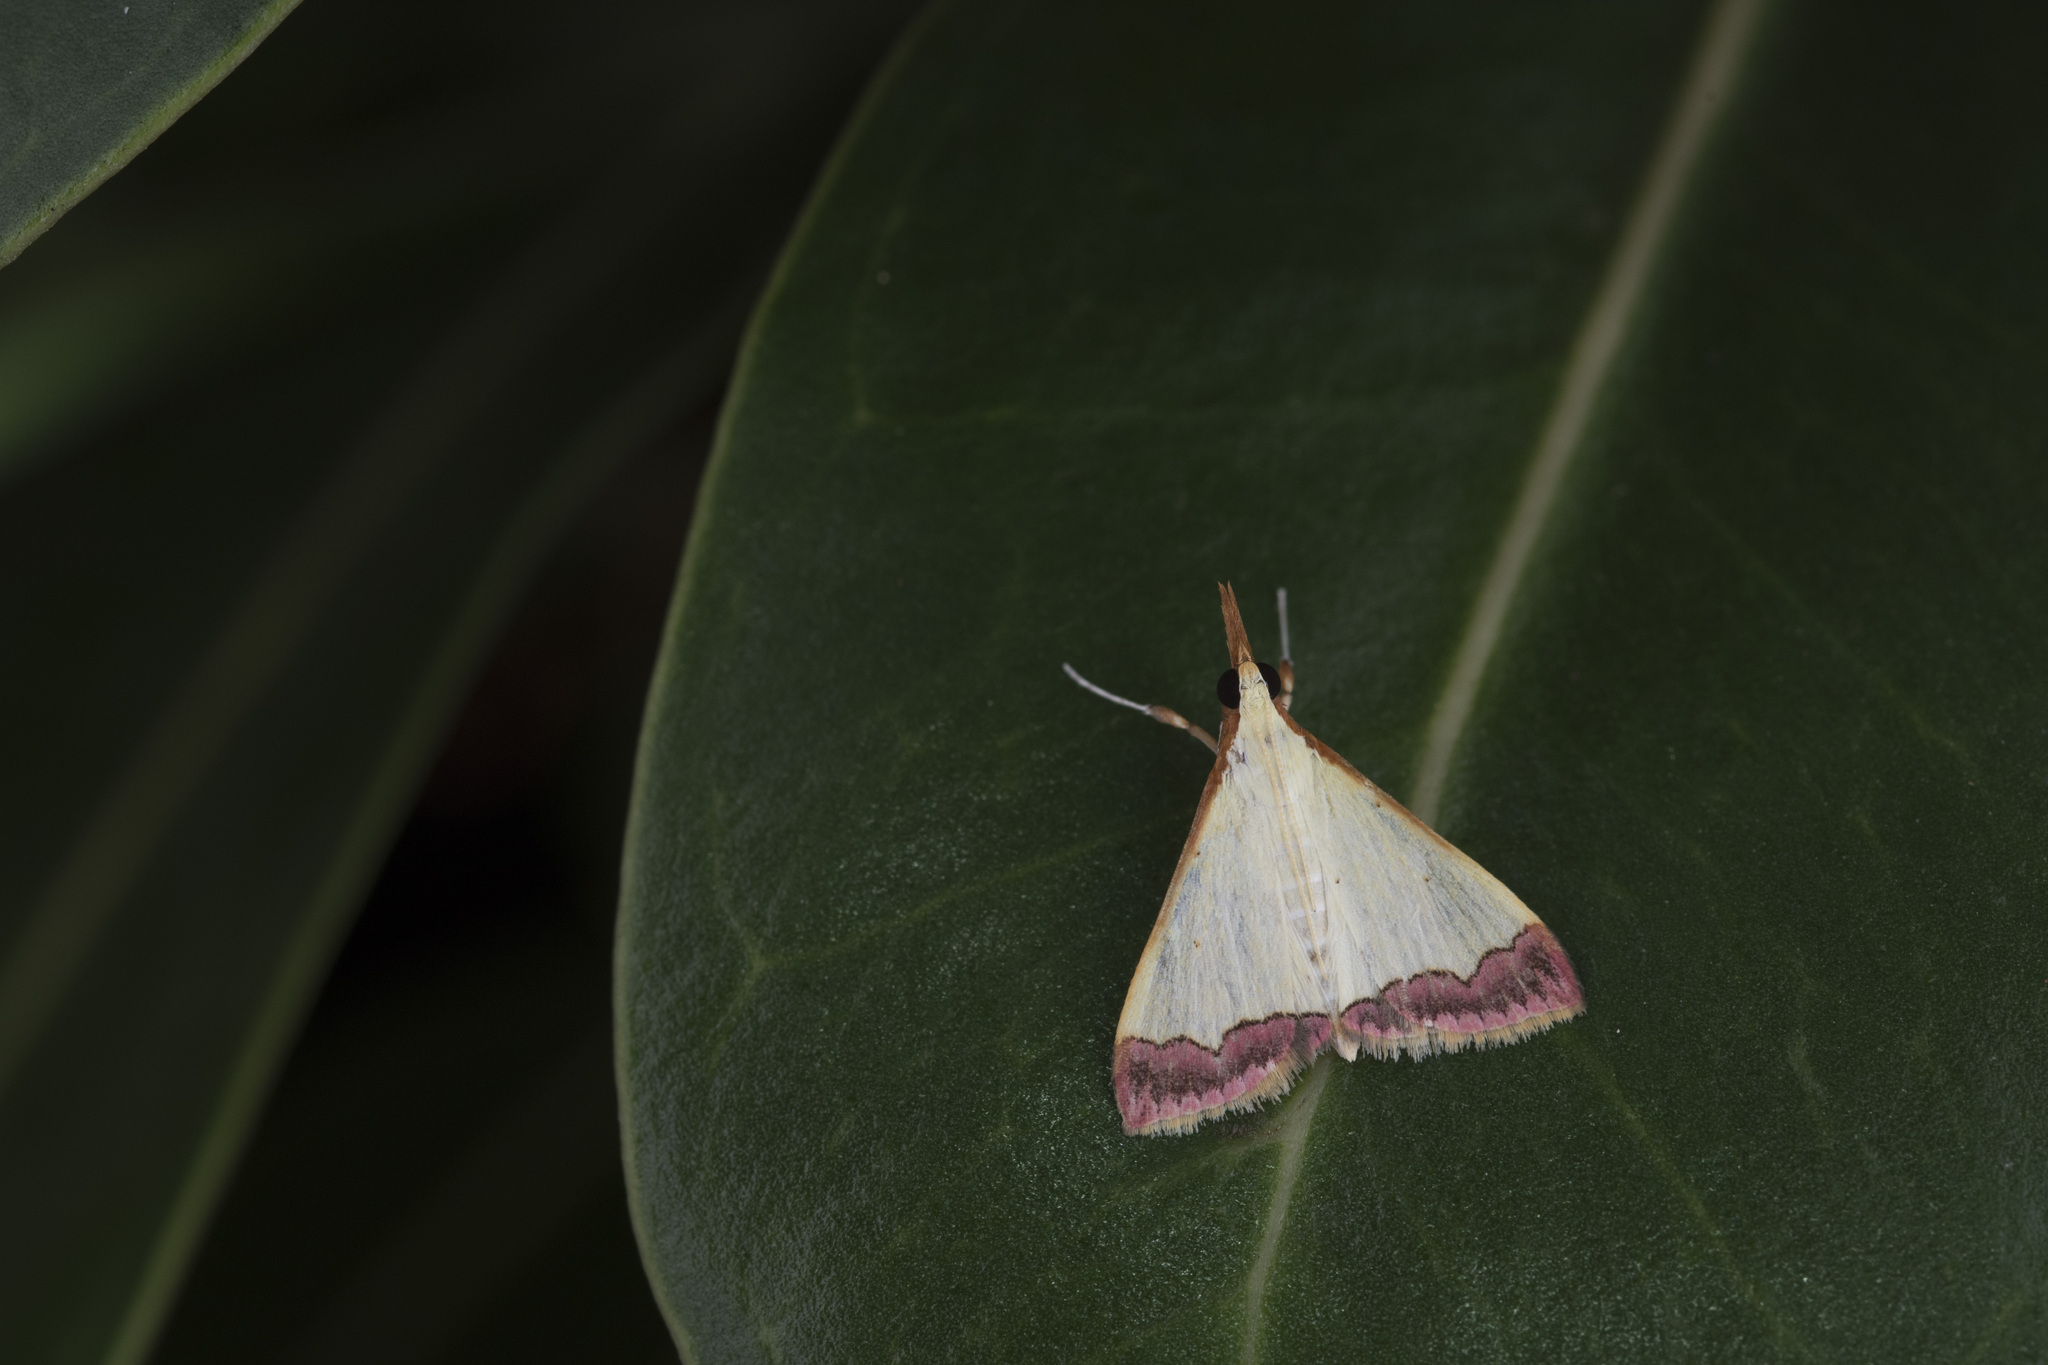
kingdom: Animalia
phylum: Arthropoda
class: Insecta
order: Lepidoptera
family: Crambidae
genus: Autocharis
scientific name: Autocharis fessalis
